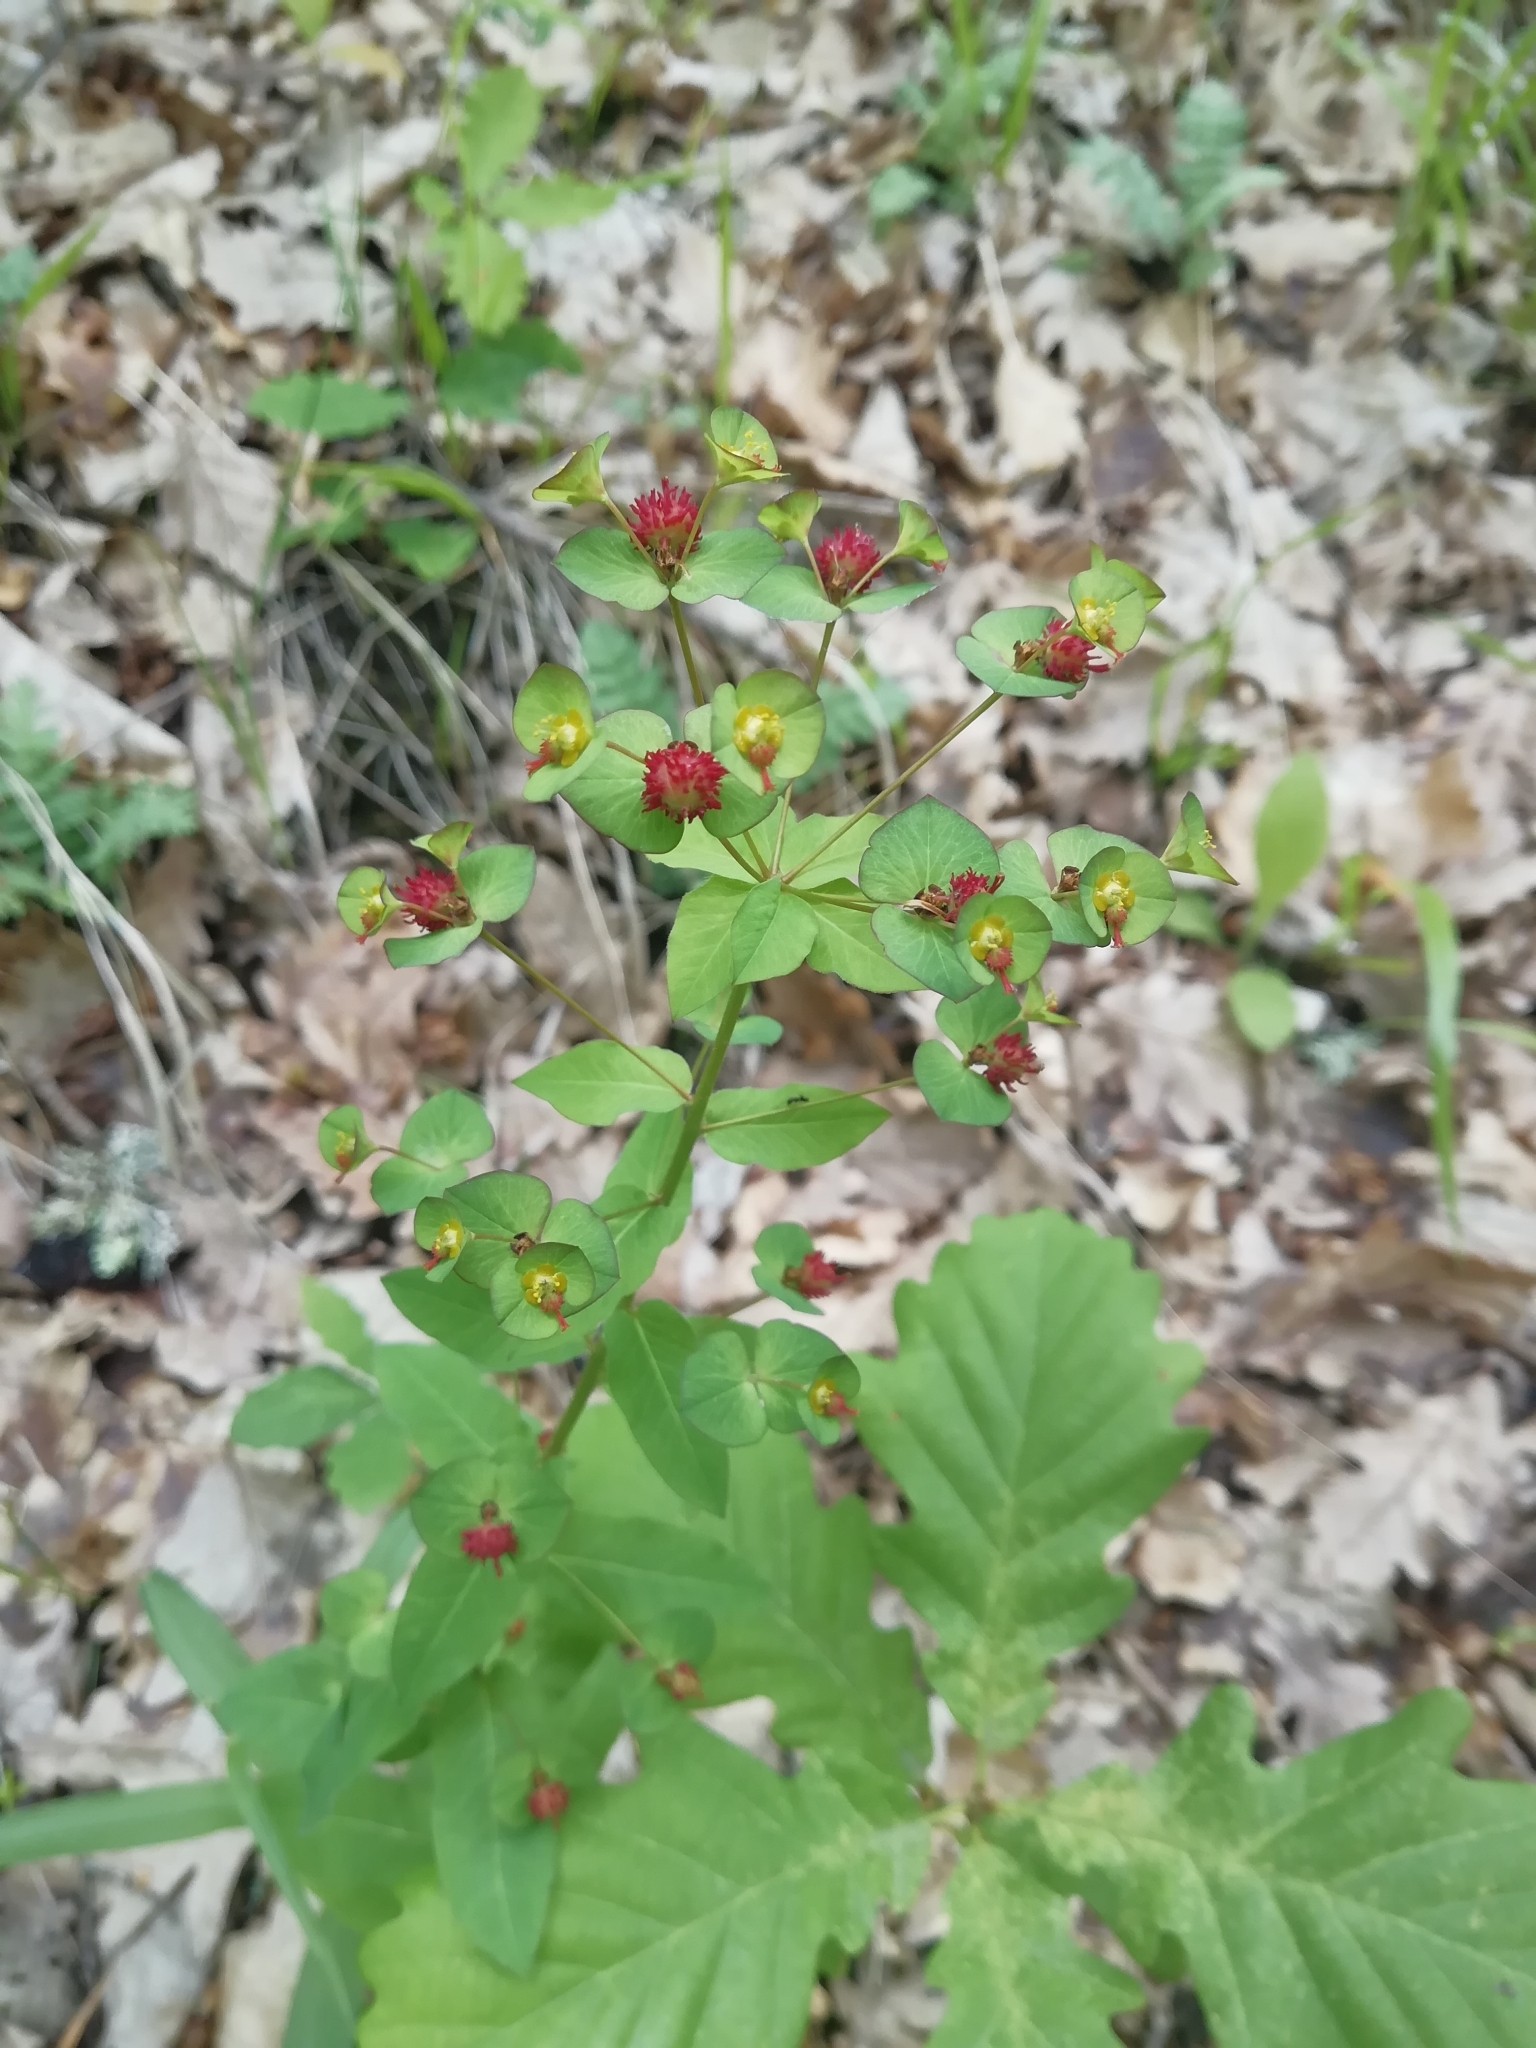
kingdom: Plantae
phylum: Tracheophyta
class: Magnoliopsida
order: Malpighiales
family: Euphorbiaceae
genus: Euphorbia
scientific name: Euphorbia squamosa
